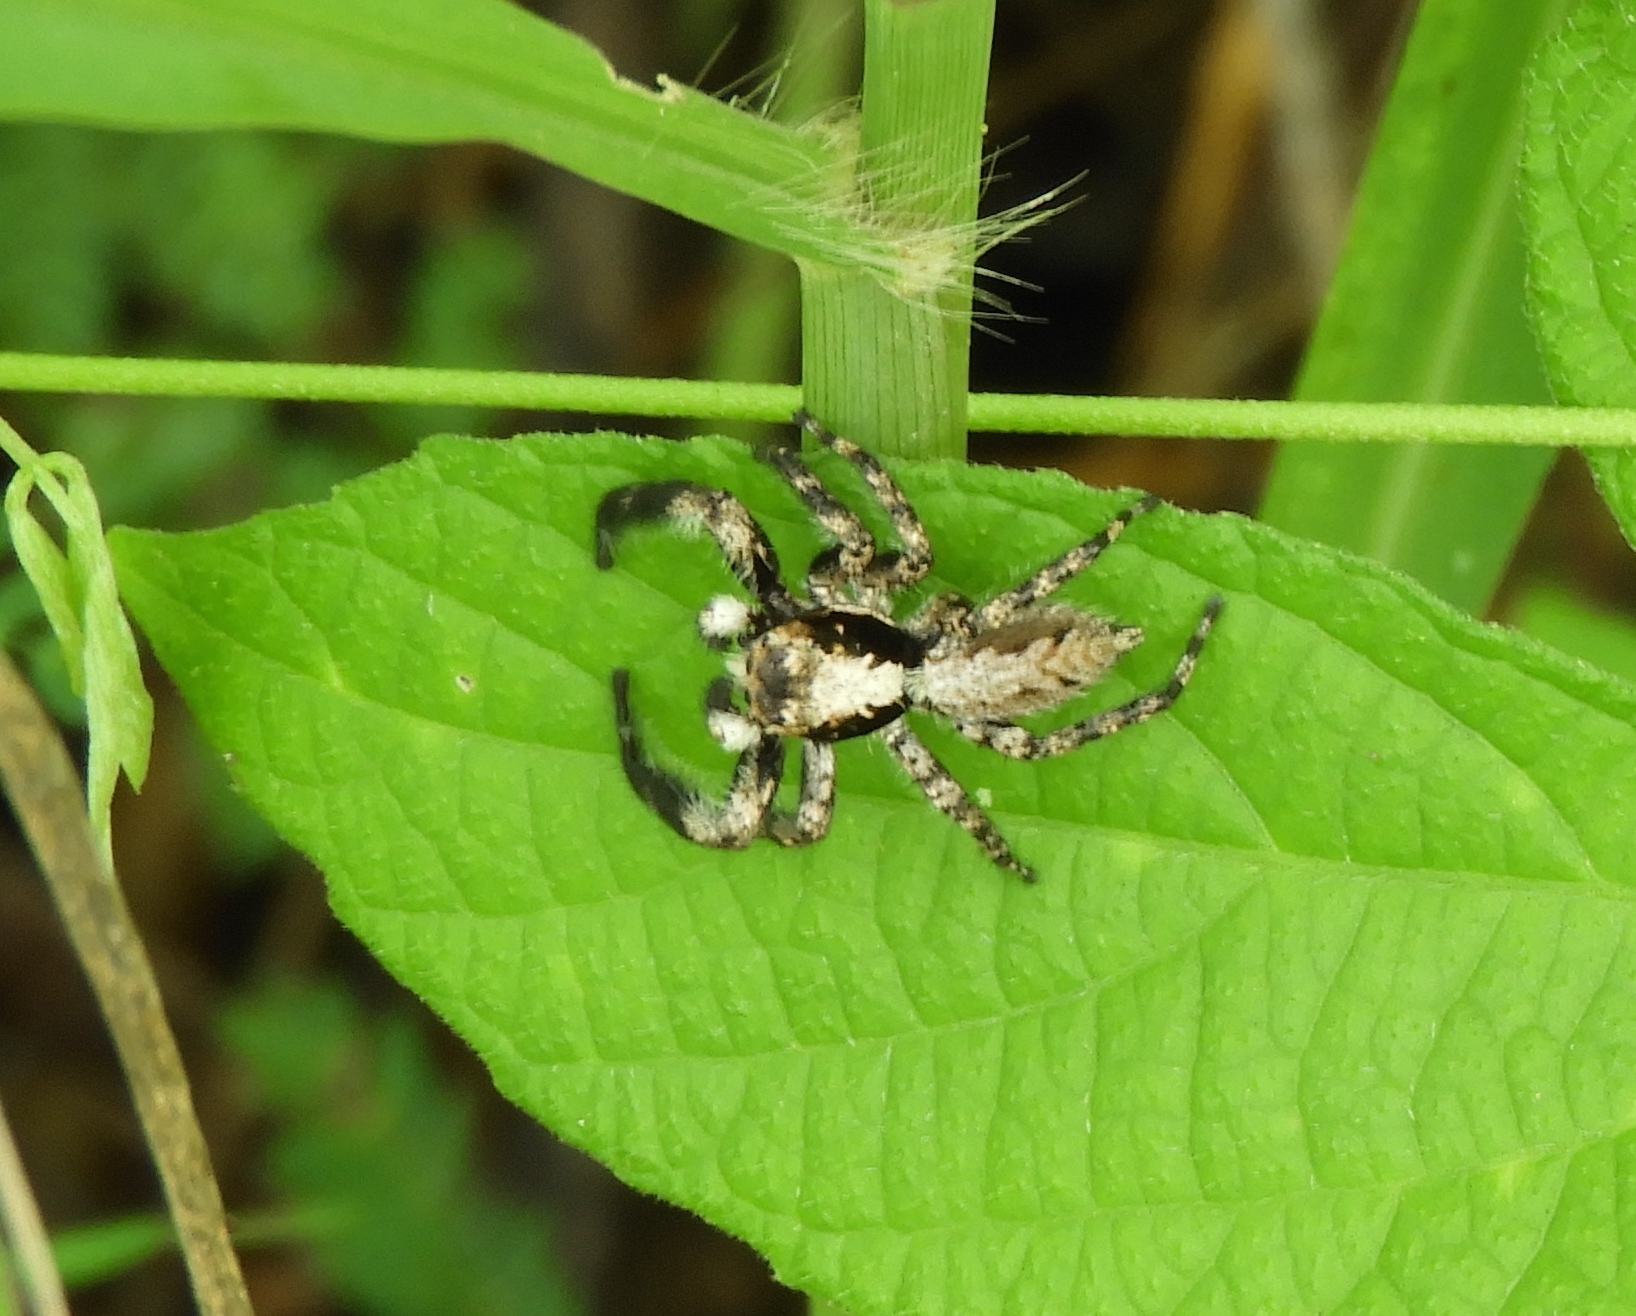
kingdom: Animalia
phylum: Arthropoda
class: Arachnida
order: Araneae
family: Salticidae
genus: Balmaceda
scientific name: Balmaceda
